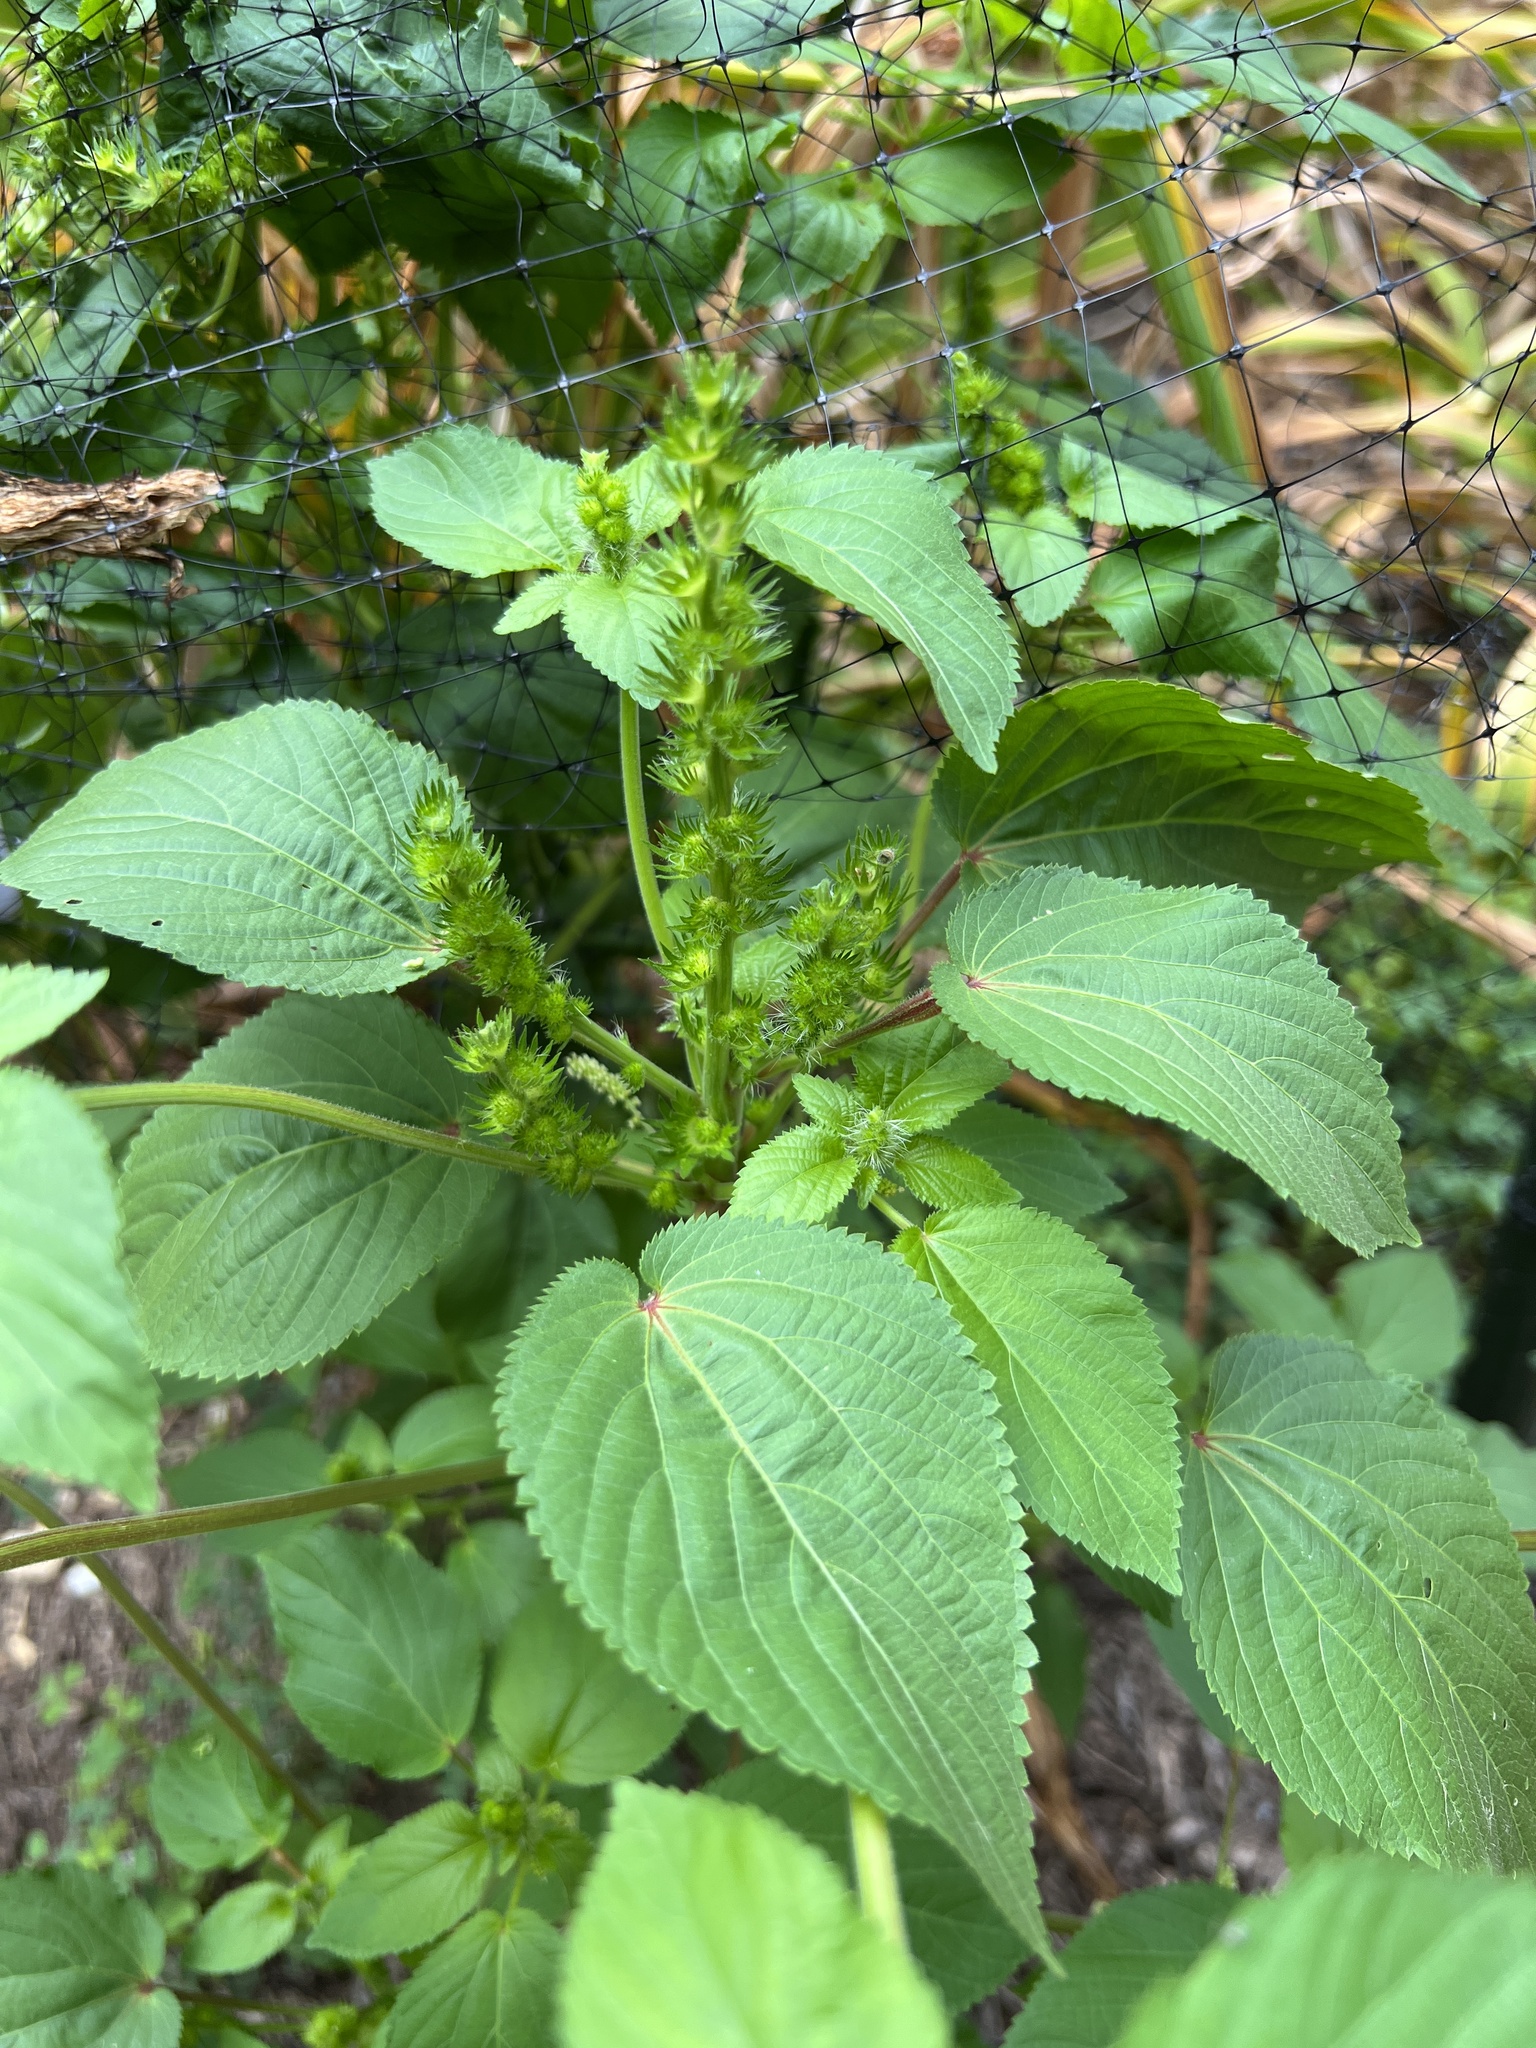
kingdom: Plantae
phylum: Tracheophyta
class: Magnoliopsida
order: Malpighiales
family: Euphorbiaceae
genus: Acalypha
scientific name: Acalypha ostryifolia
